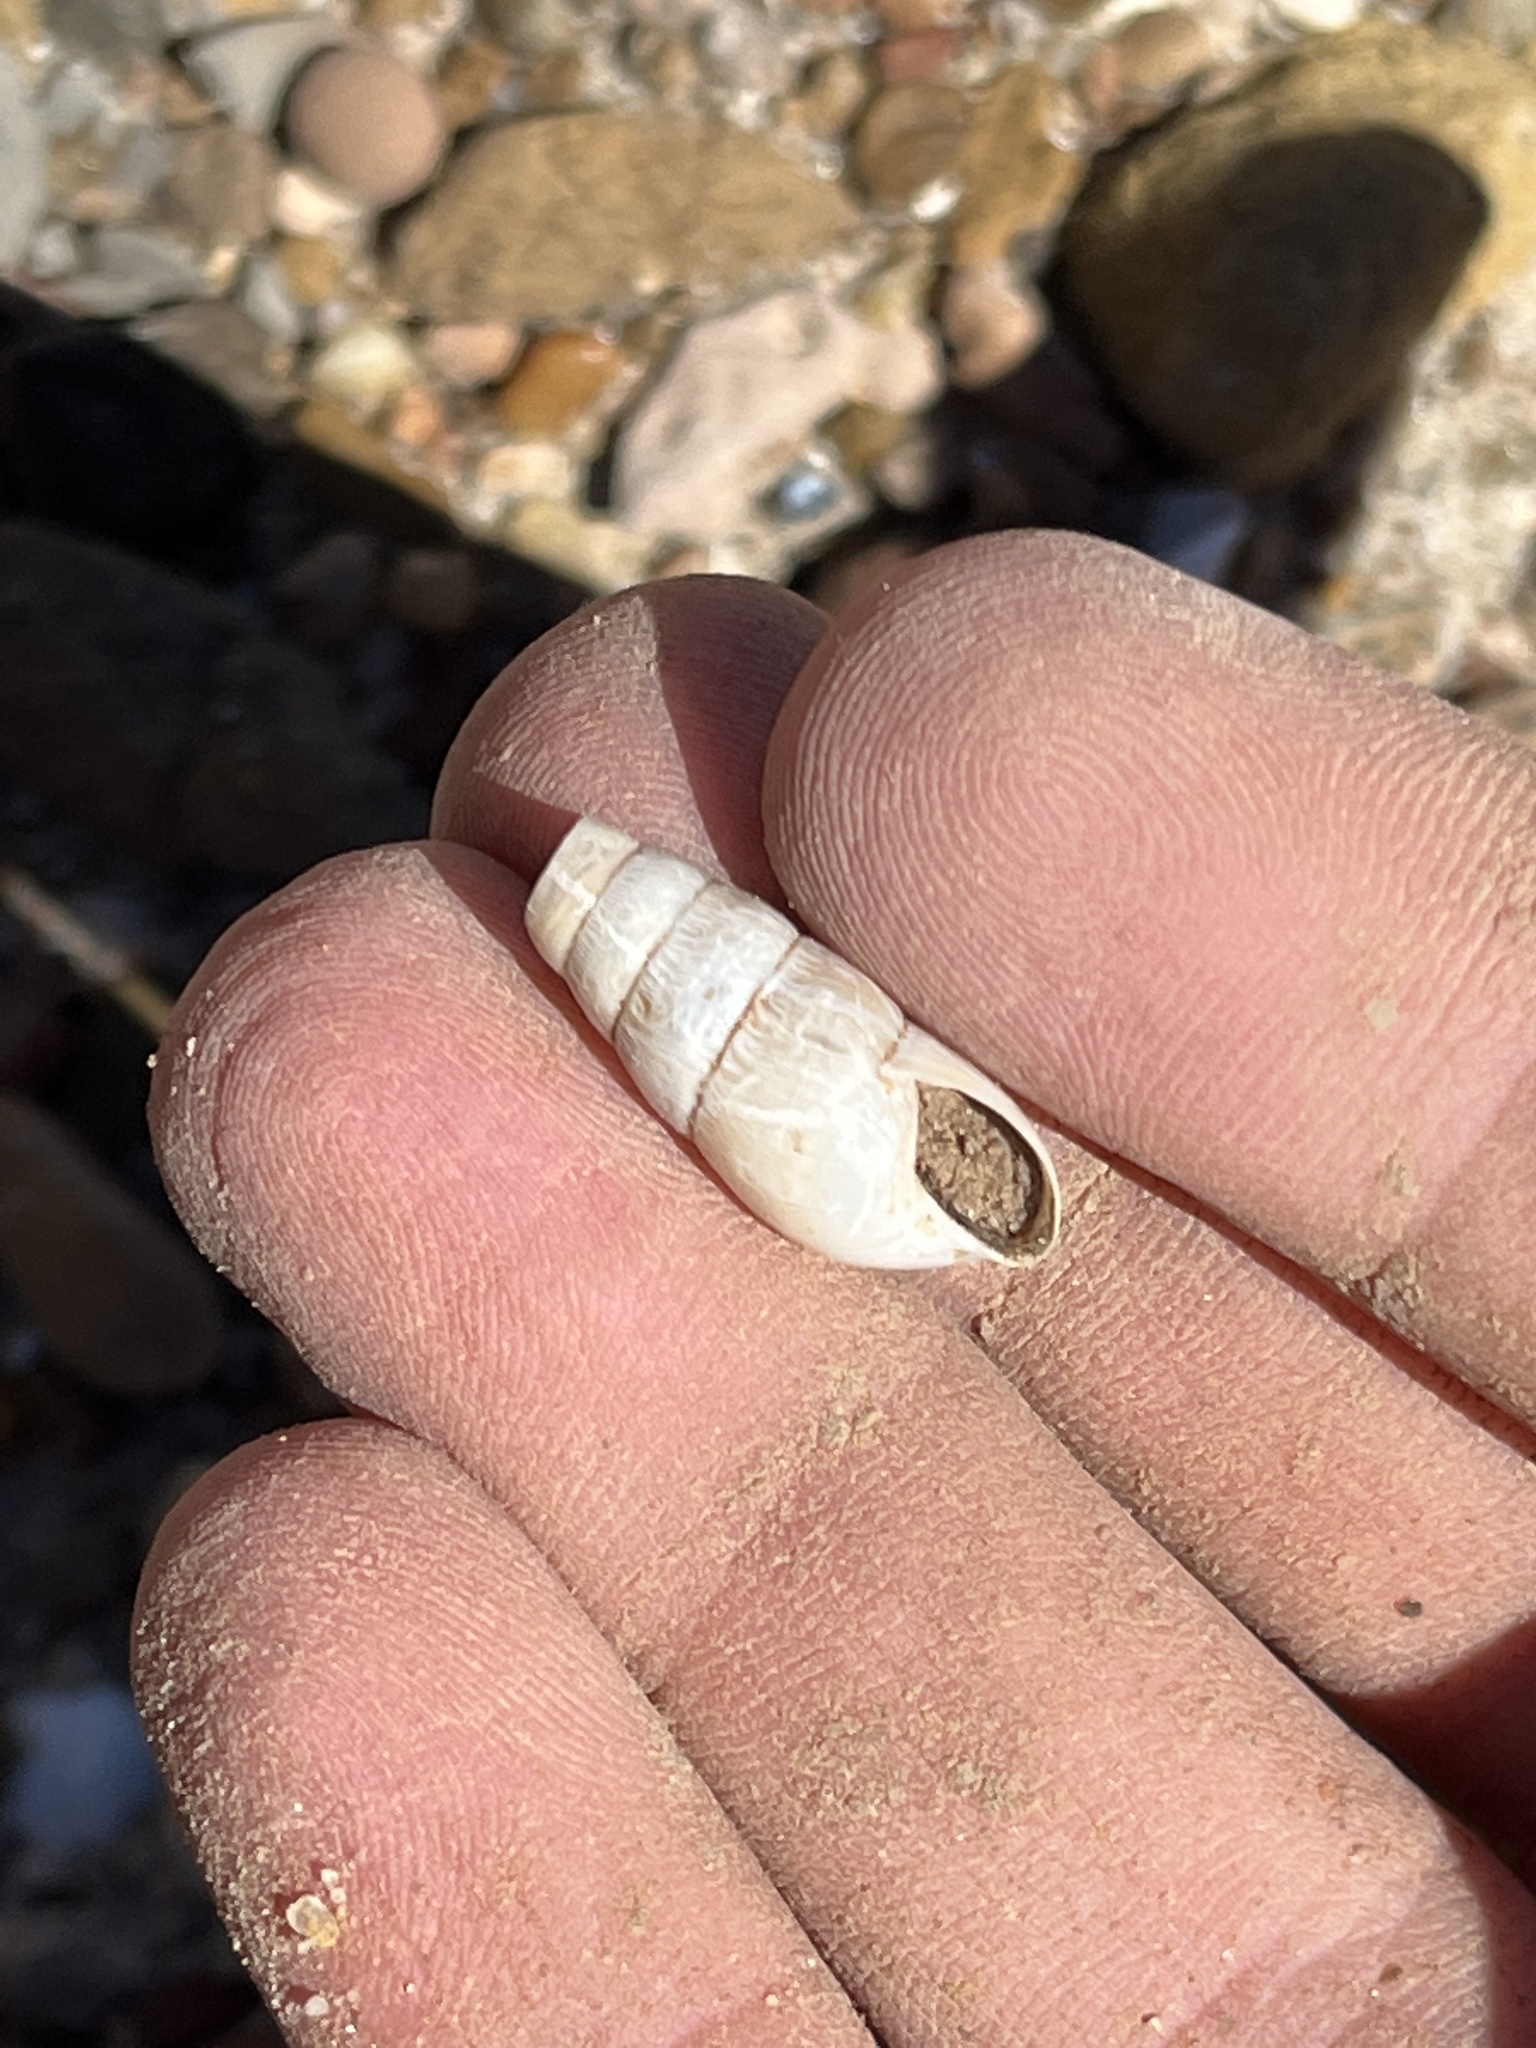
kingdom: Animalia
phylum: Mollusca
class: Gastropoda
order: Stylommatophora
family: Achatinidae
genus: Rumina
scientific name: Rumina decollata
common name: Decollate snail
